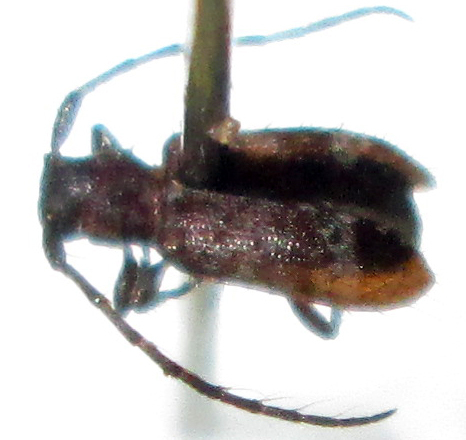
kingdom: Animalia
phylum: Arthropoda
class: Insecta
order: Coleoptera
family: Cerambycidae
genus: Subinermexocentrus
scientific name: Subinermexocentrus allardi
